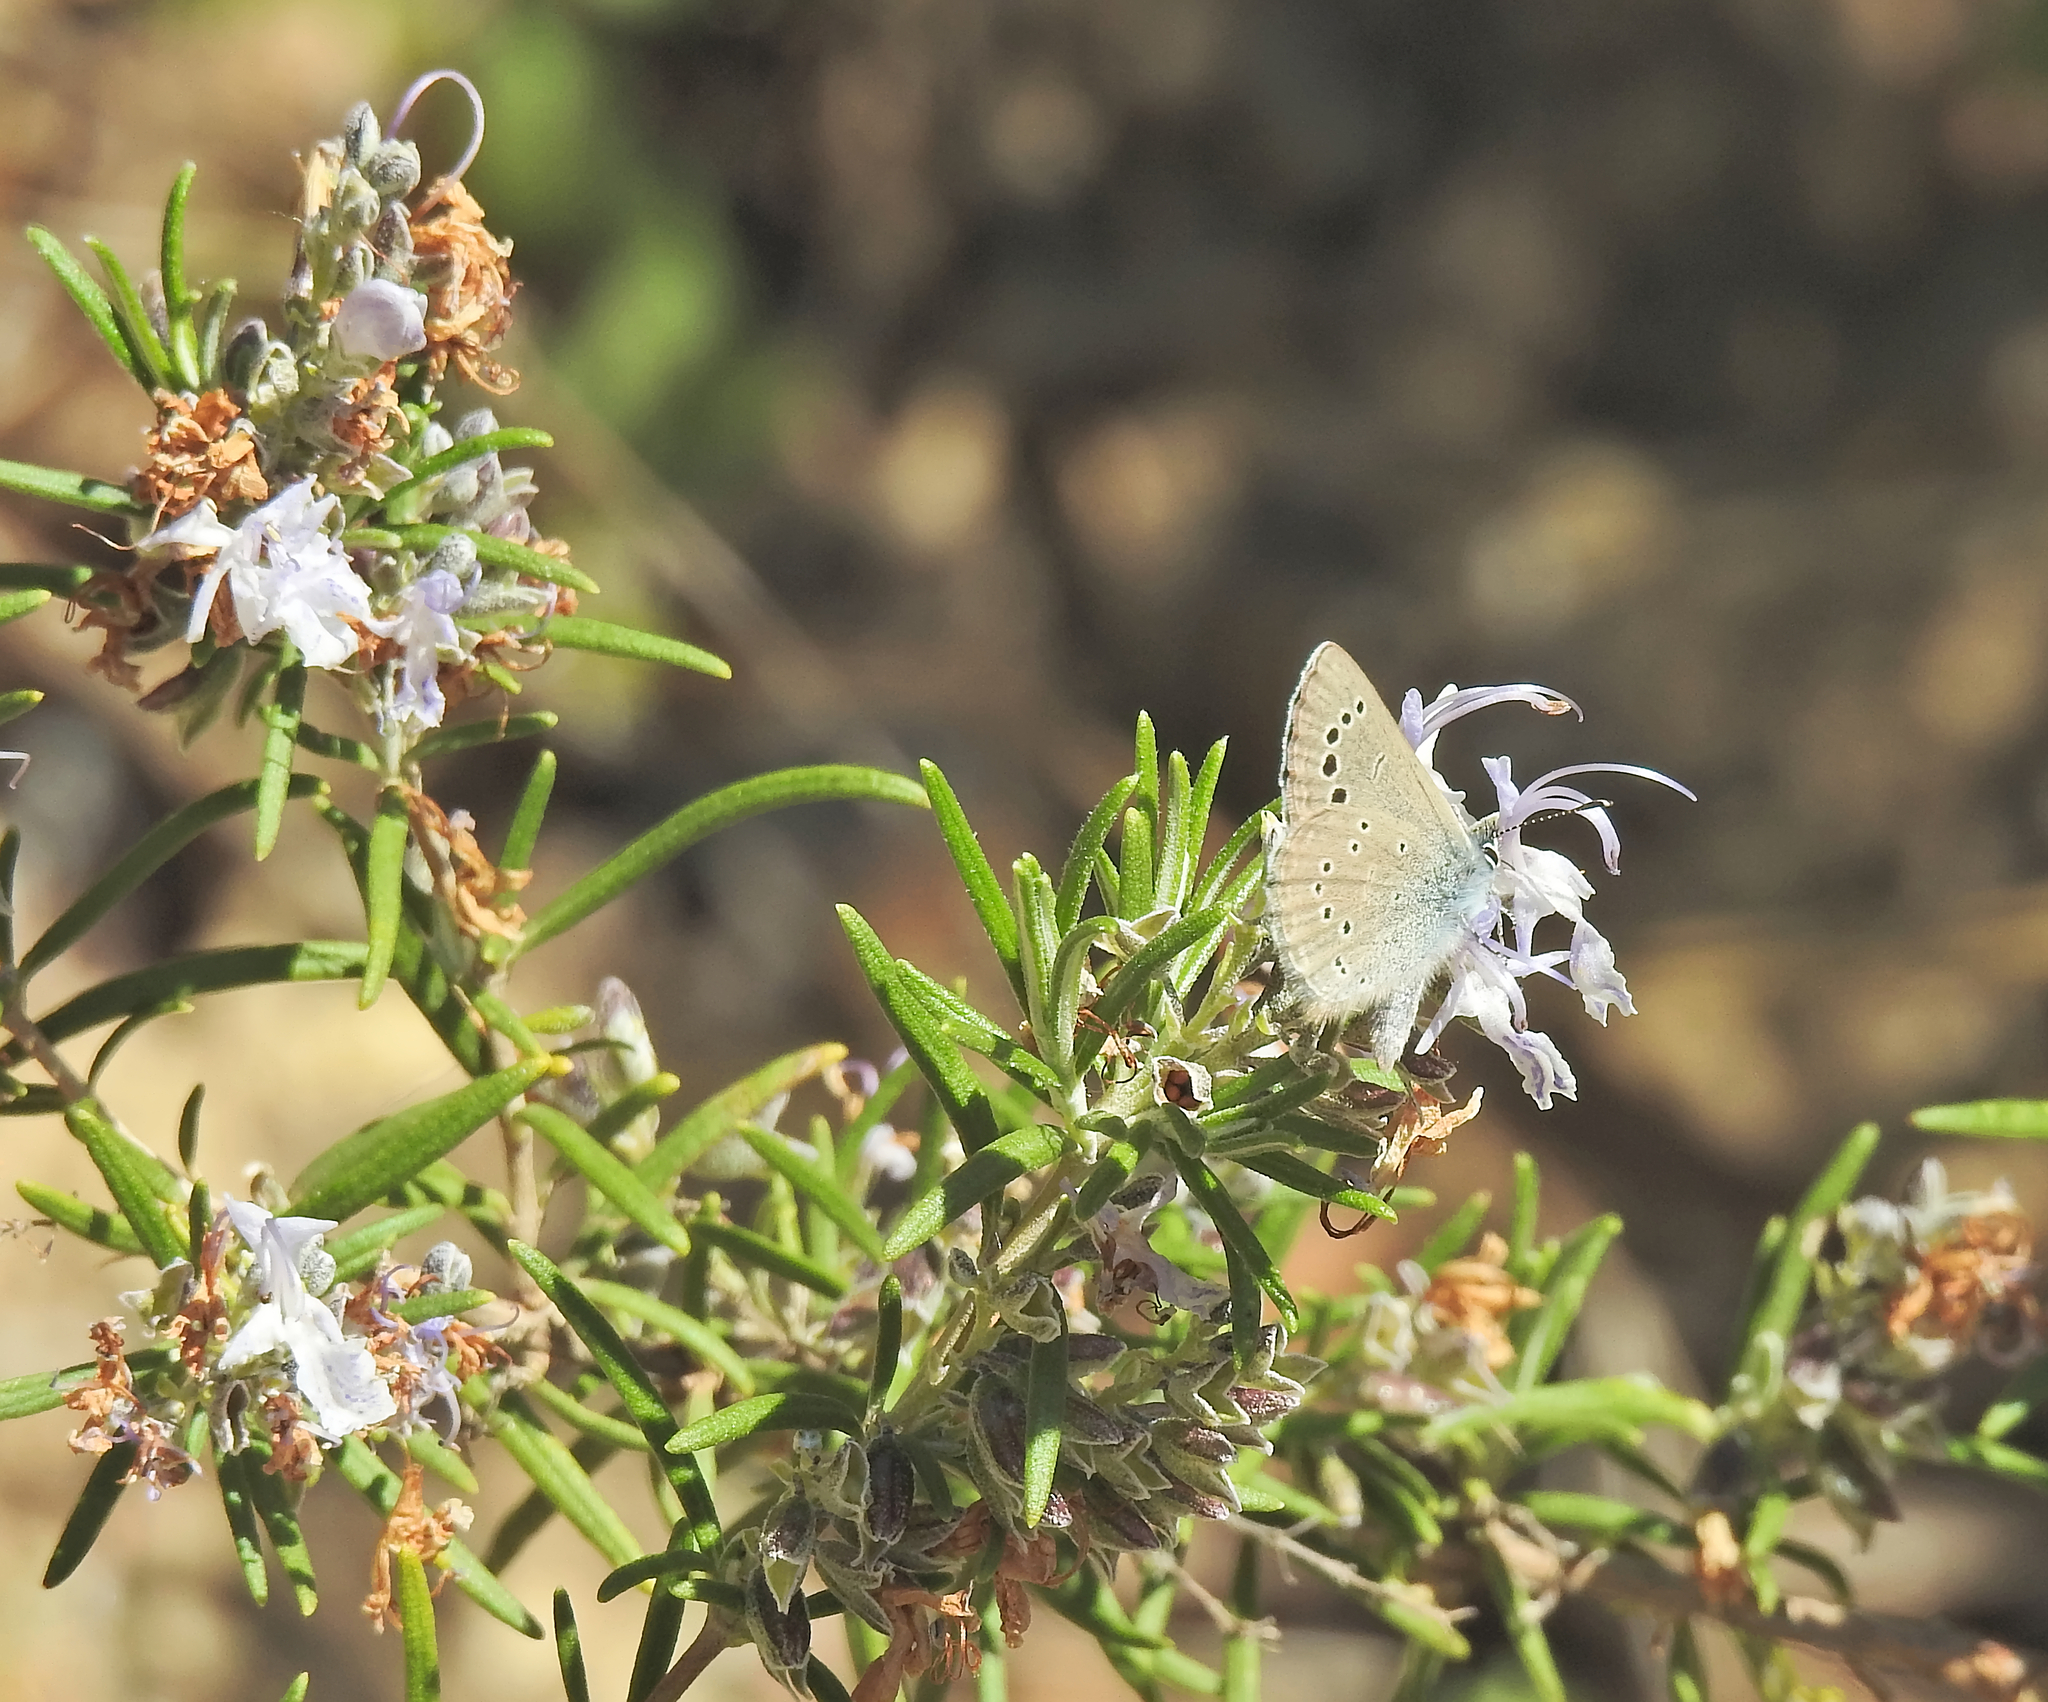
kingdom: Plantae
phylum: Tracheophyta
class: Magnoliopsida
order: Lamiales
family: Lamiaceae
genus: Salvia
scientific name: Salvia rosmarinus
